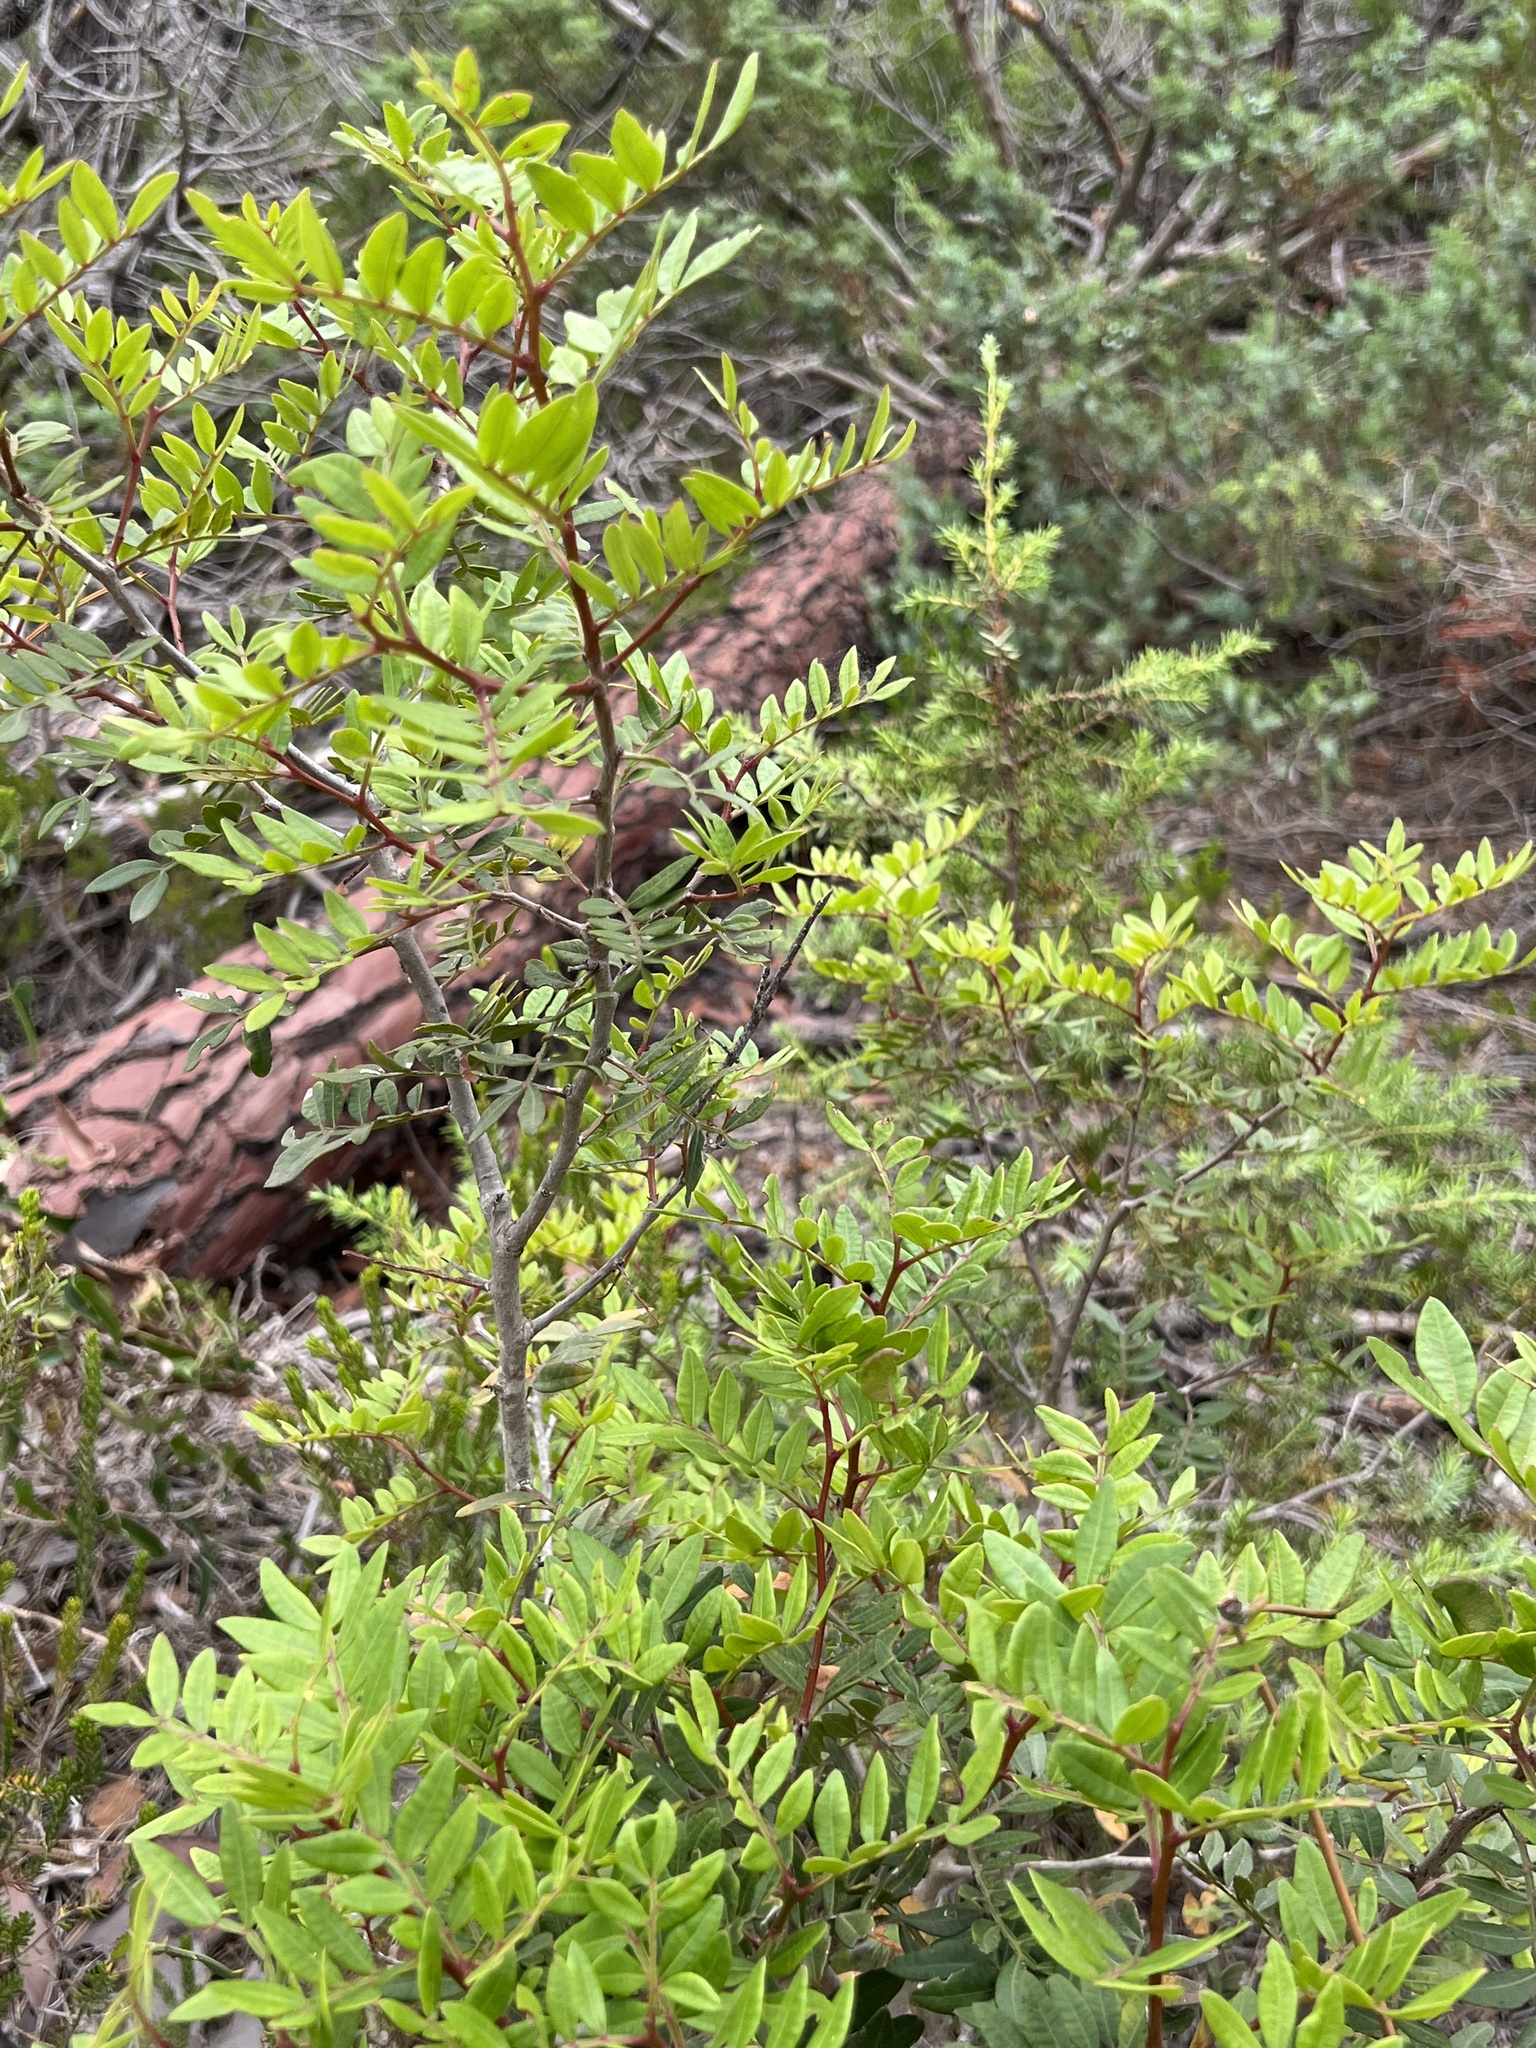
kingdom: Plantae
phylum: Tracheophyta
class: Magnoliopsida
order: Sapindales
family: Anacardiaceae
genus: Pistacia
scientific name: Pistacia lentiscus
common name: Lentisk
